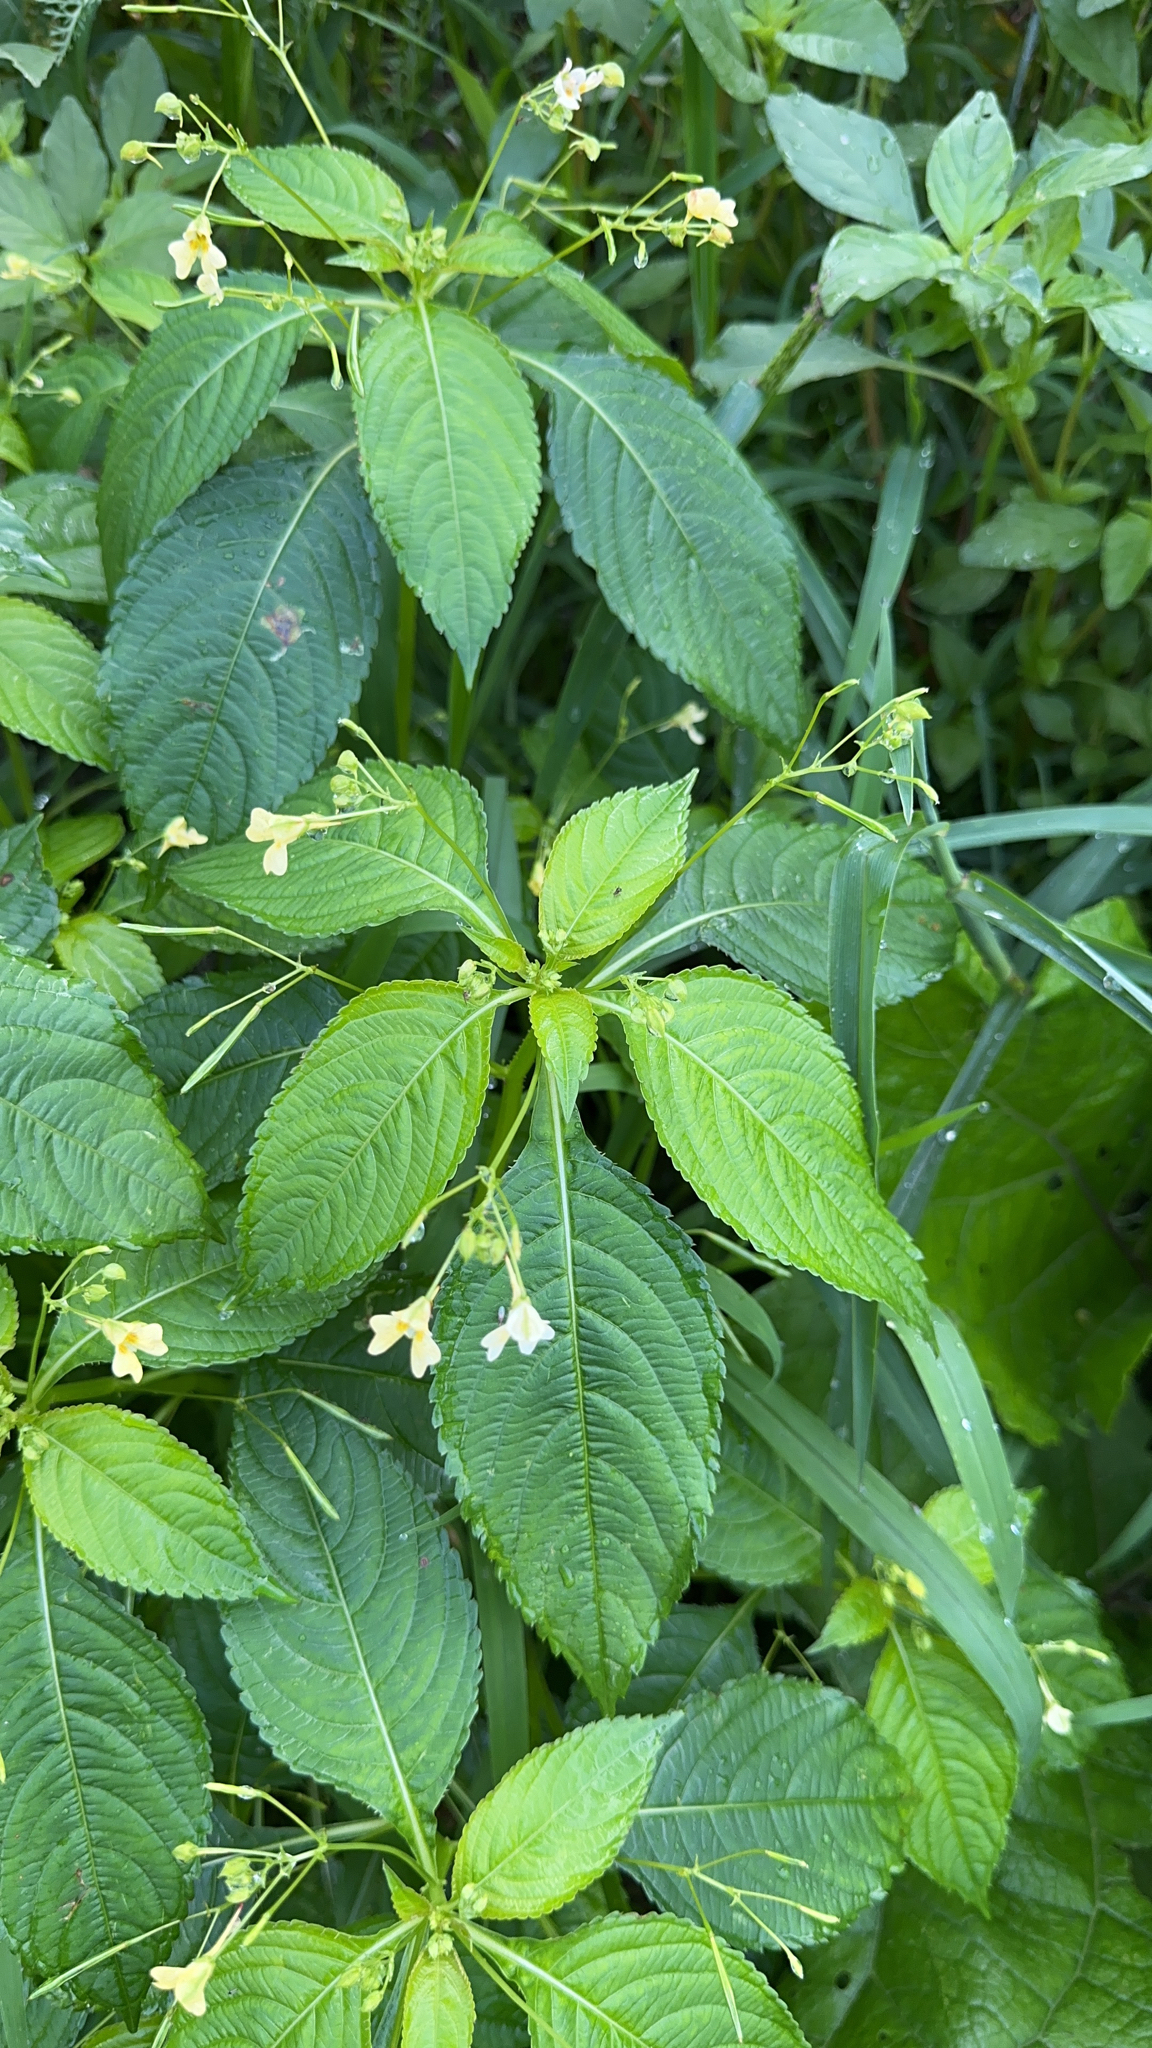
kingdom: Plantae
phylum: Tracheophyta
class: Magnoliopsida
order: Ericales
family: Balsaminaceae
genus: Impatiens
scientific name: Impatiens parviflora
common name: Small balsam
